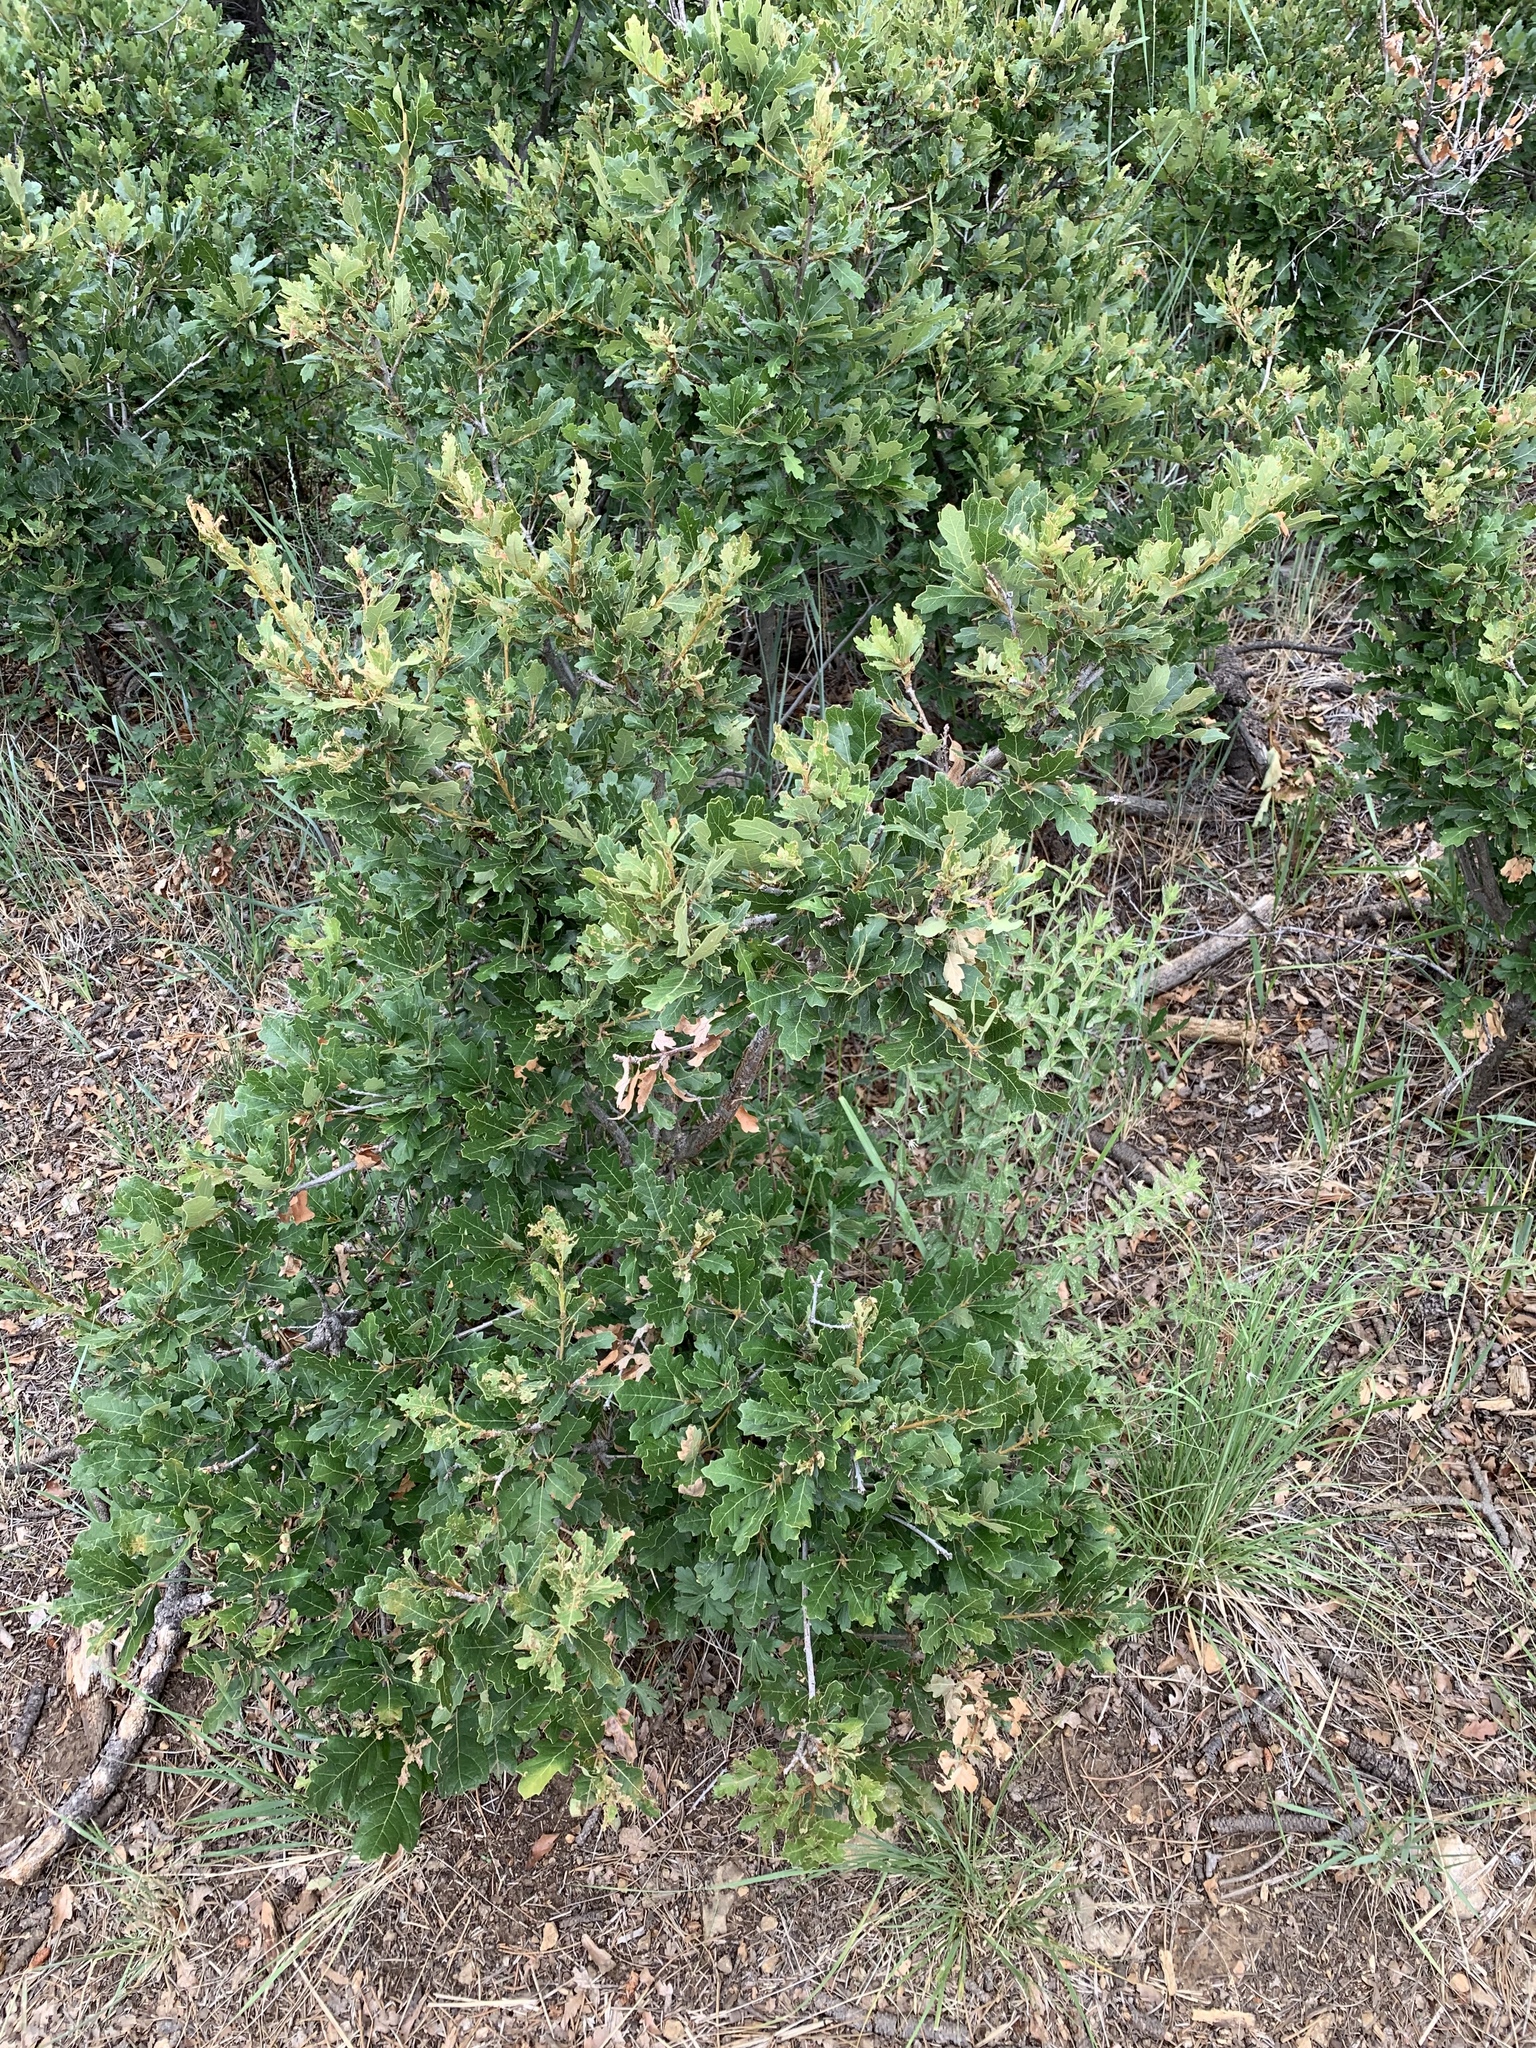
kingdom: Plantae
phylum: Tracheophyta
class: Magnoliopsida
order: Fagales
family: Fagaceae
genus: Quercus
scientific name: Quercus undulata
